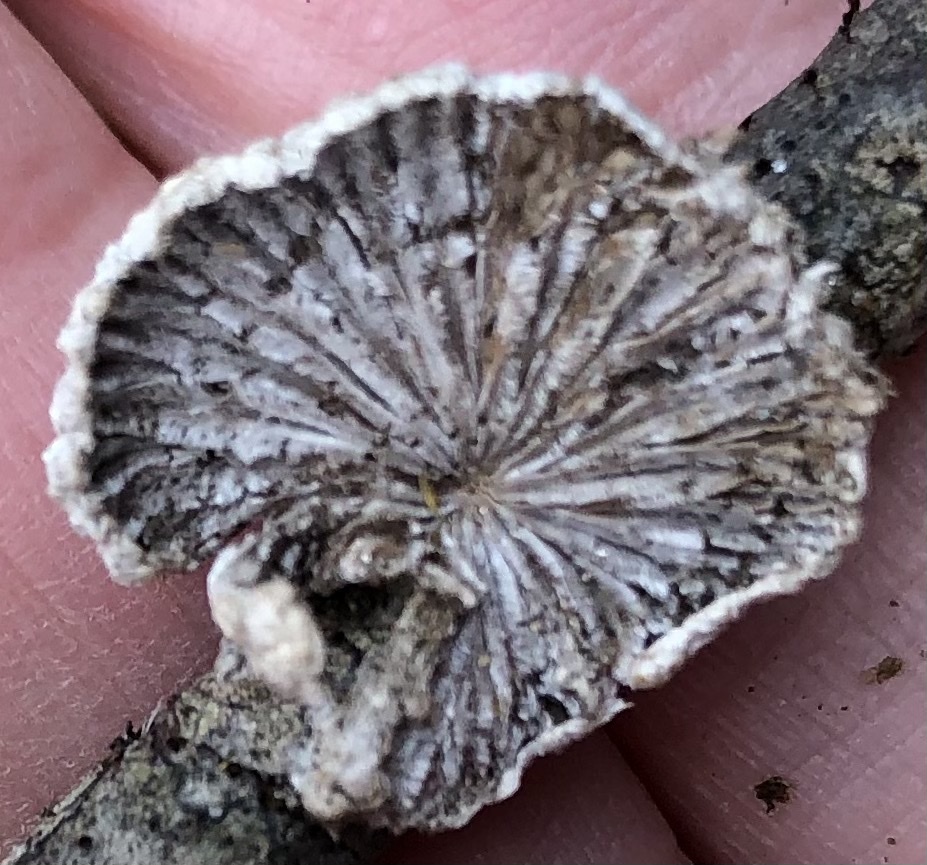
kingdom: Fungi
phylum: Basidiomycota
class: Agaricomycetes
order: Agaricales
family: Schizophyllaceae
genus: Schizophyllum
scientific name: Schizophyllum commune
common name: Common porecrust
